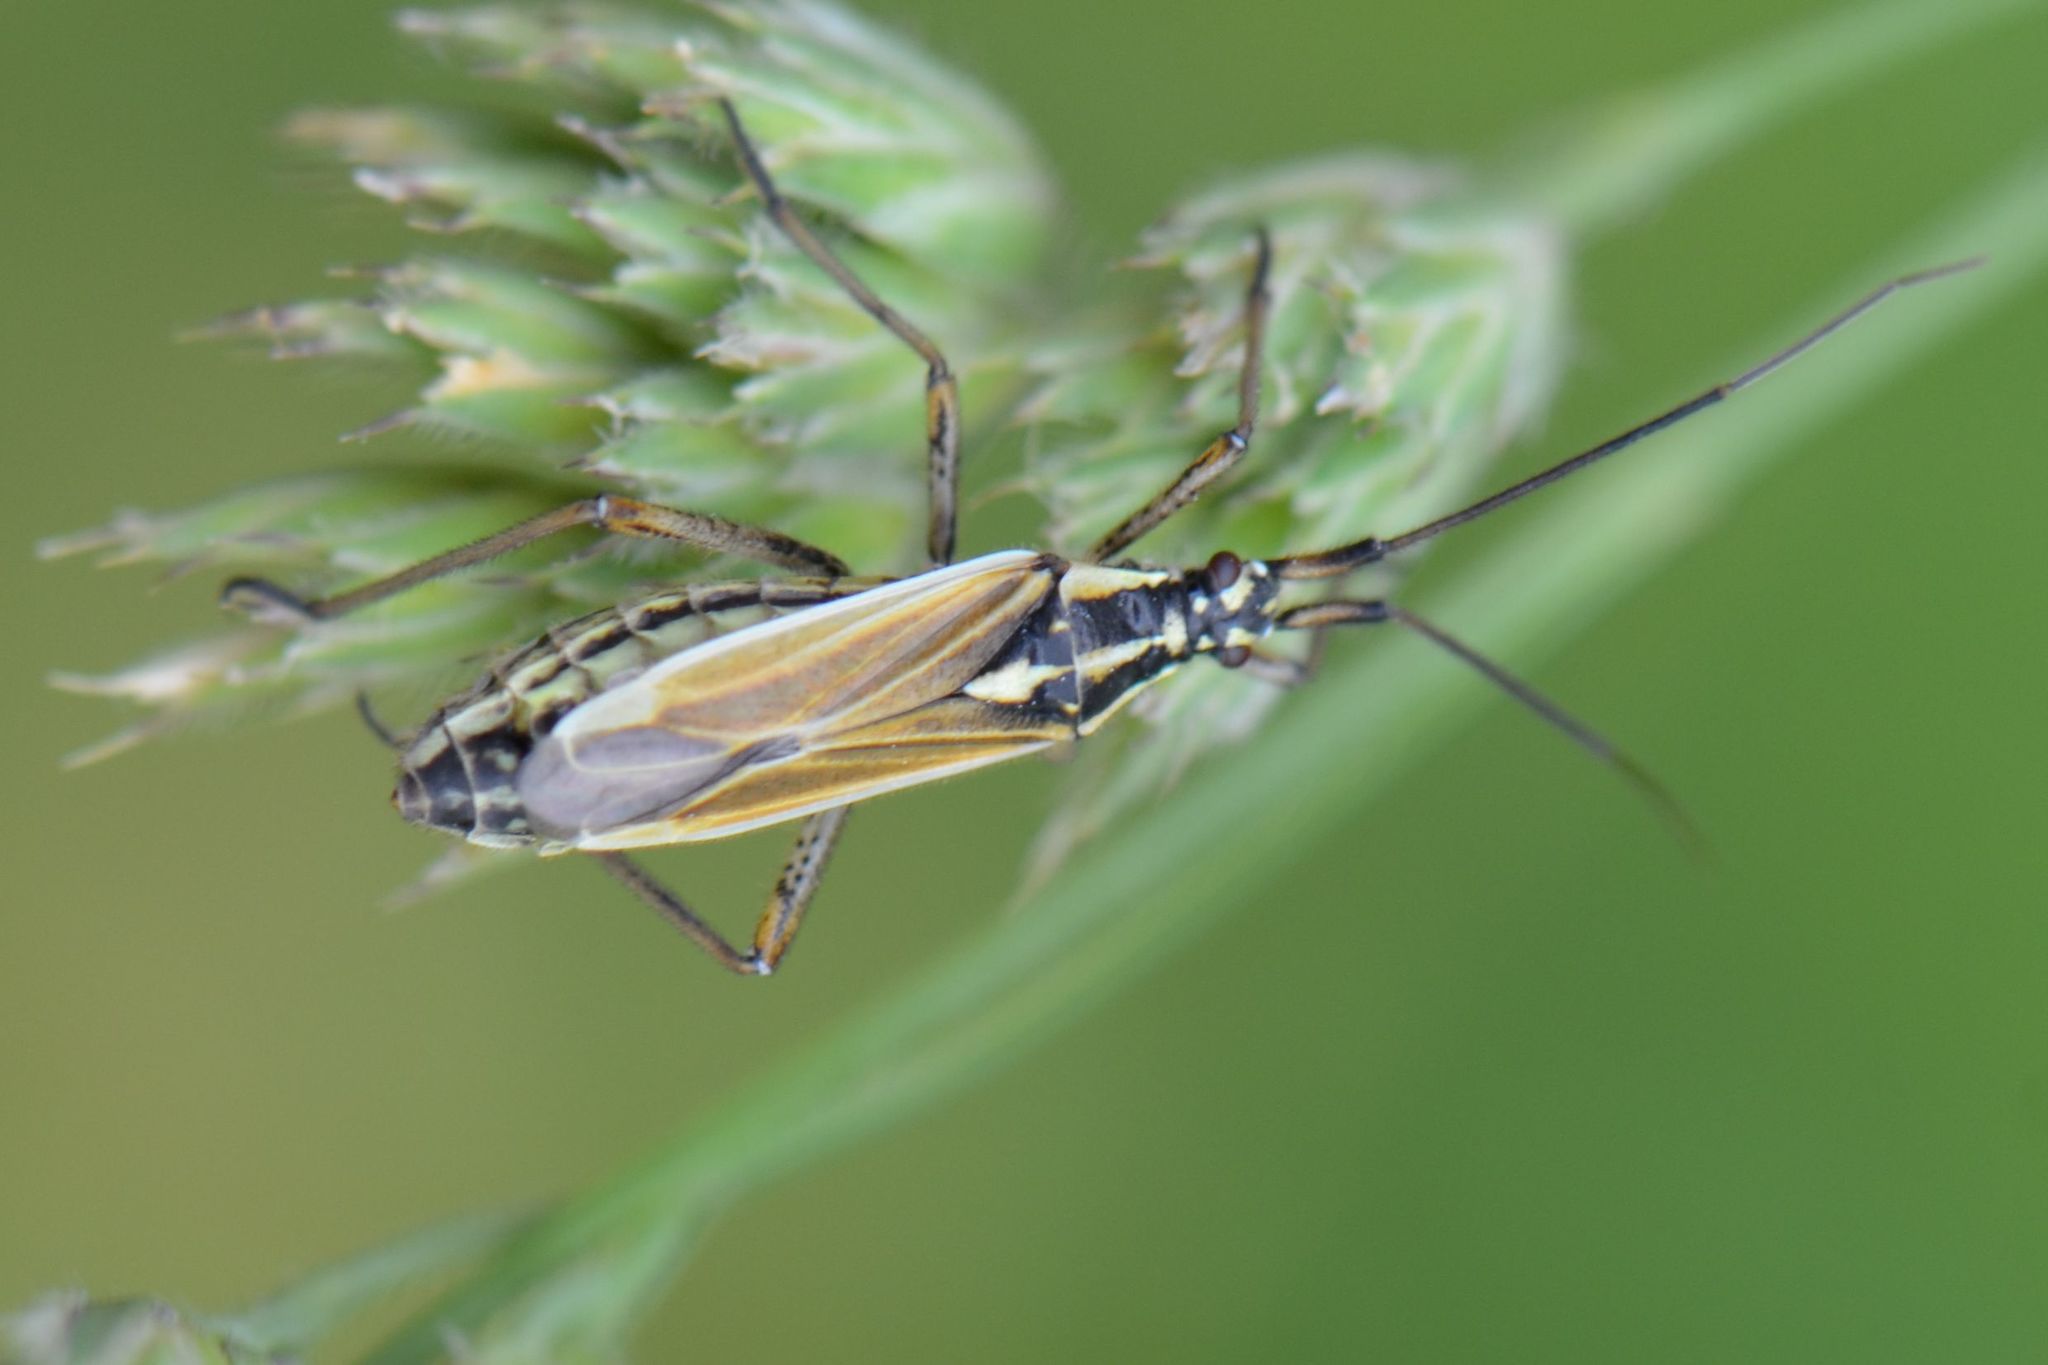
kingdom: Animalia
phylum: Arthropoda
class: Insecta
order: Hemiptera
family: Miridae
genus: Leptopterna
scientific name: Leptopterna dolabrata
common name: Meadow plant bug
